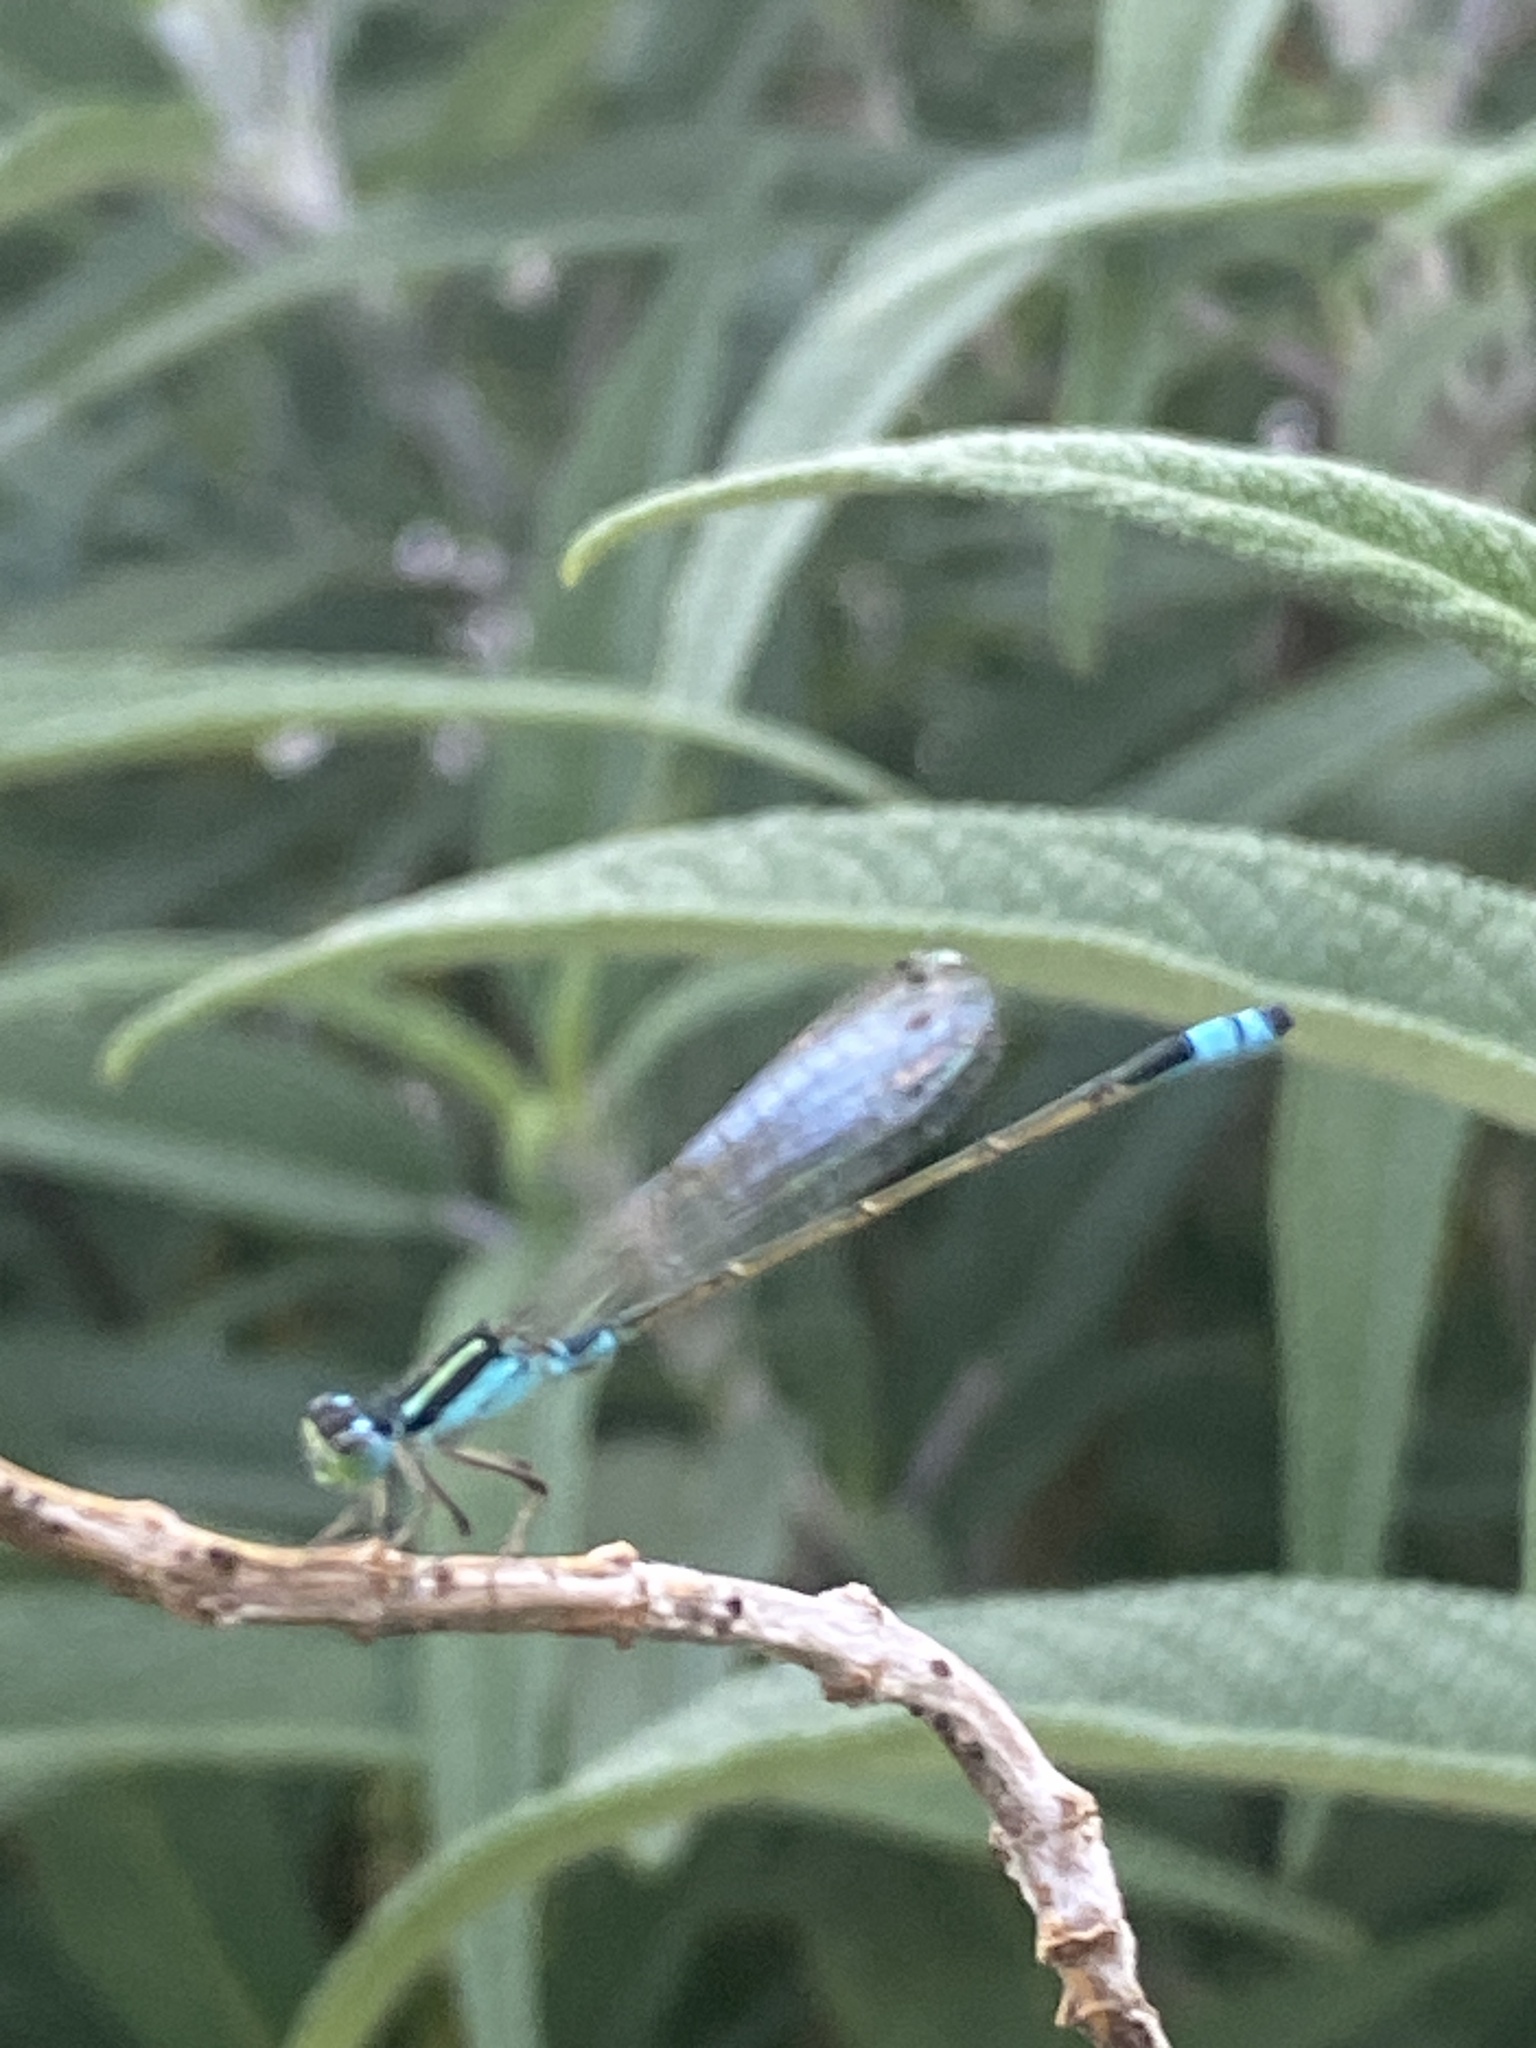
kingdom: Animalia
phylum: Arthropoda
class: Insecta
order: Odonata
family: Coenagrionidae
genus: Ischnura
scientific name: Ischnura fluviatilis
